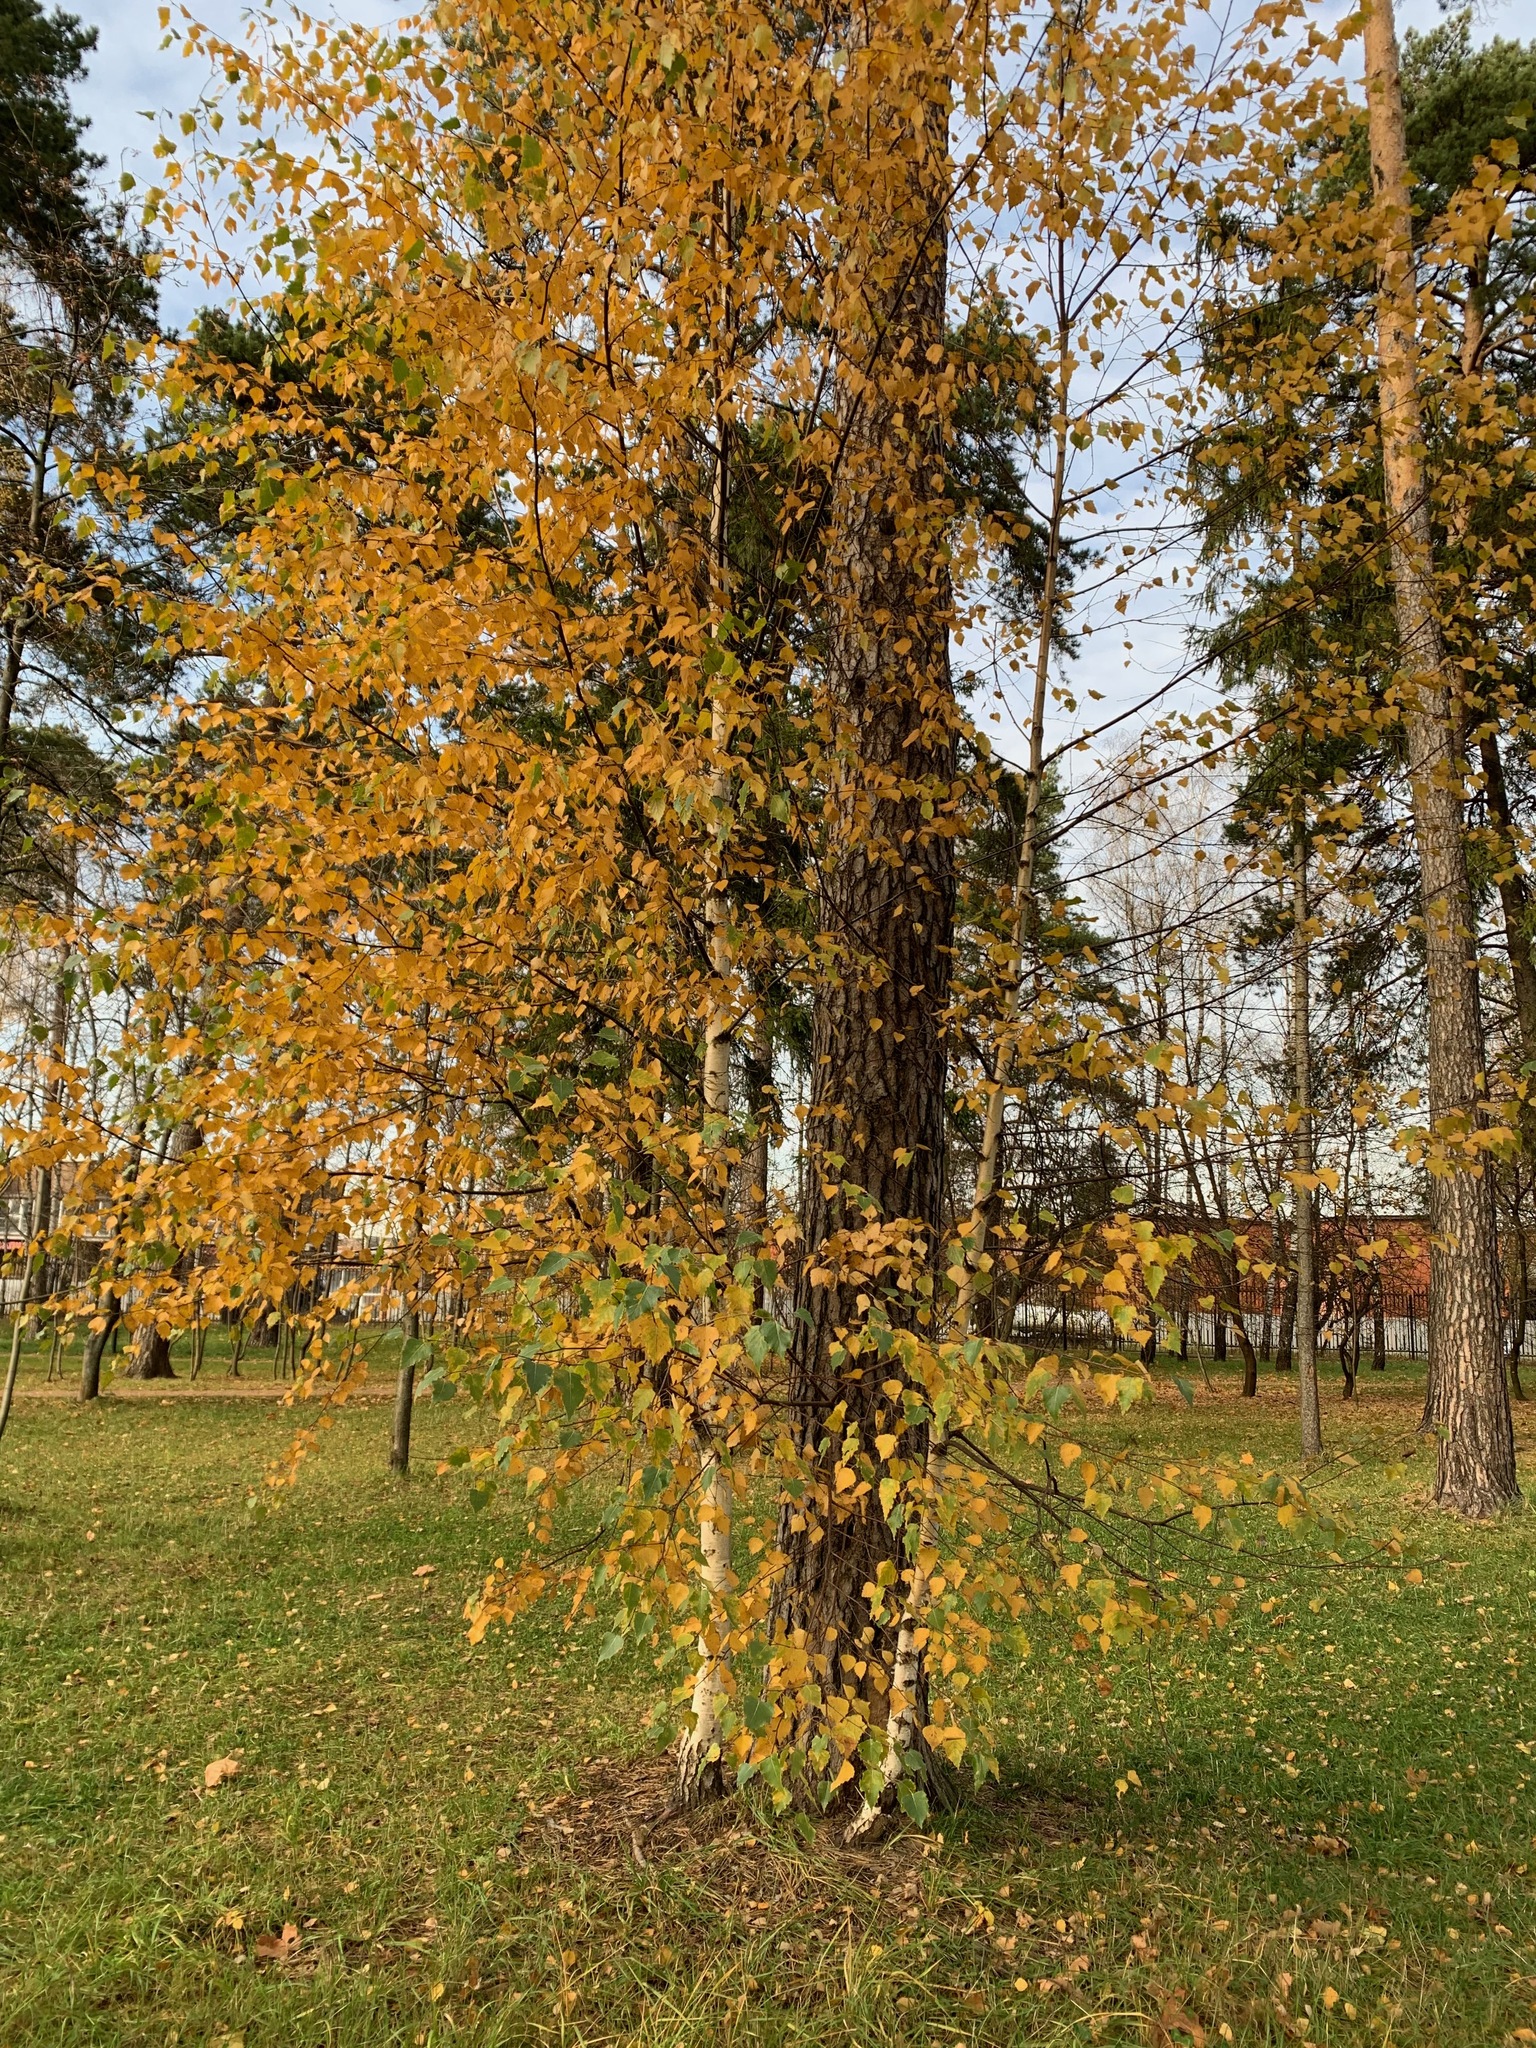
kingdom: Plantae
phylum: Tracheophyta
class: Magnoliopsida
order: Fagales
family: Betulaceae
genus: Betula
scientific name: Betula pendula
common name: Silver birch
